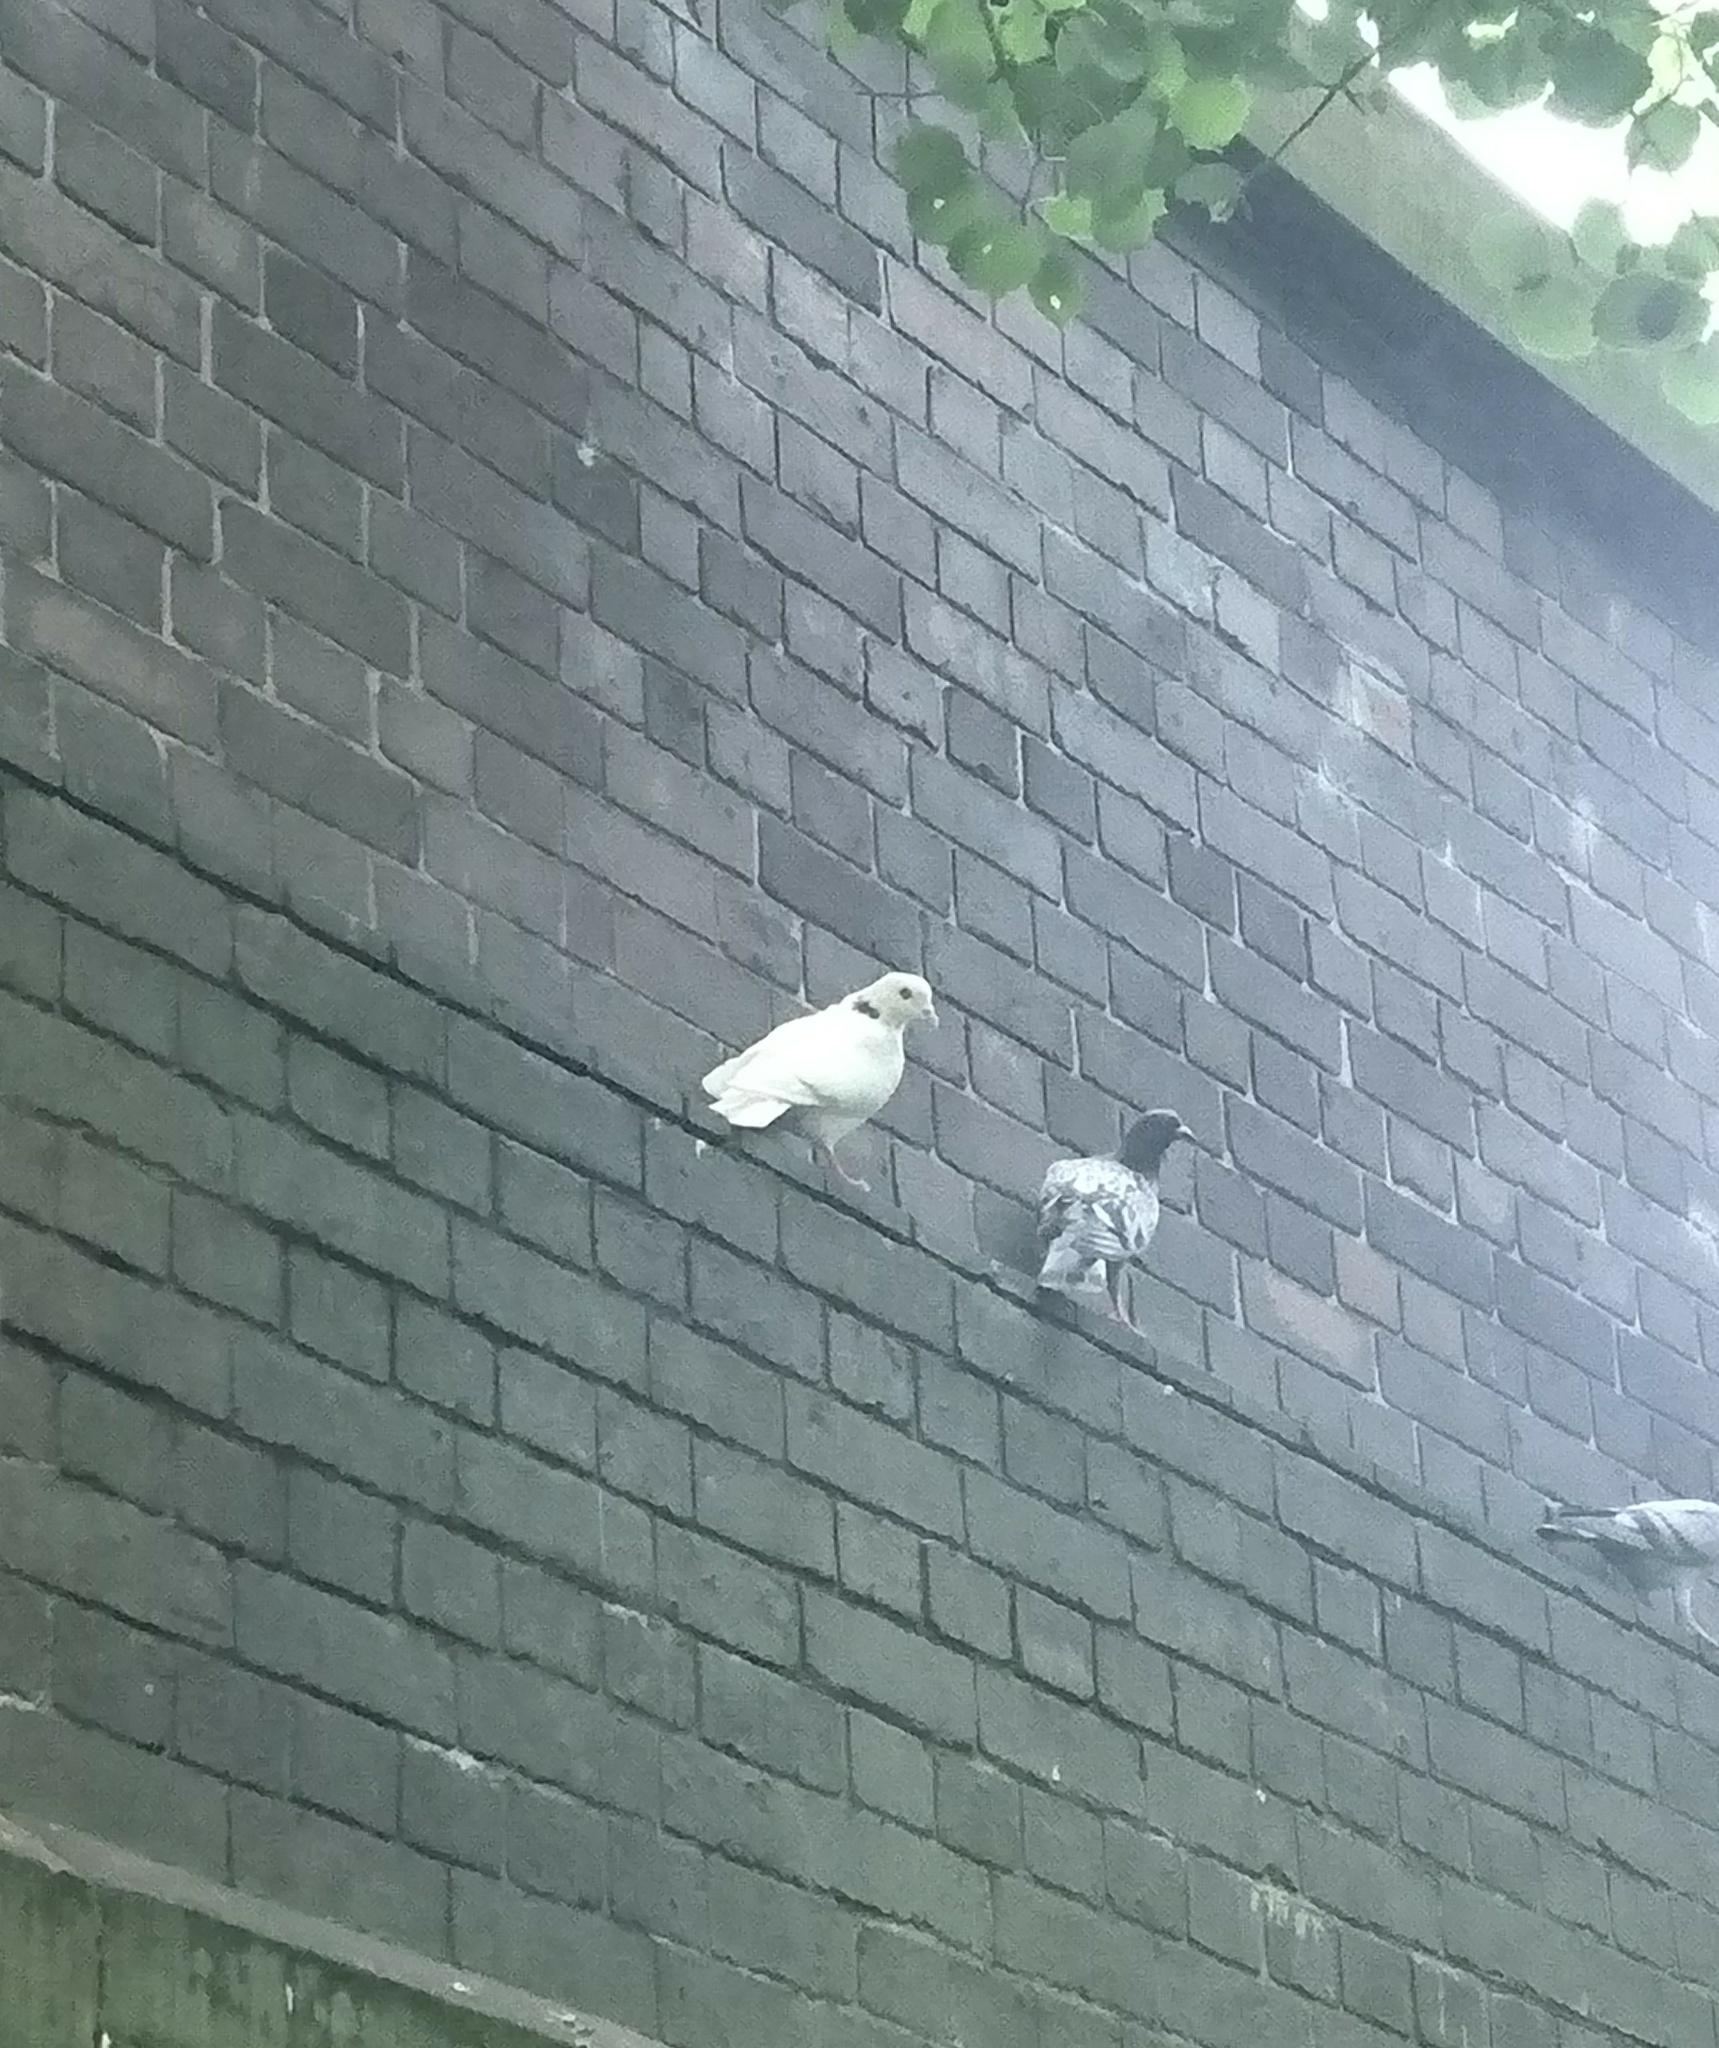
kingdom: Animalia
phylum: Chordata
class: Aves
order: Columbiformes
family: Columbidae
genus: Columba
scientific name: Columba livia
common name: Rock pigeon
